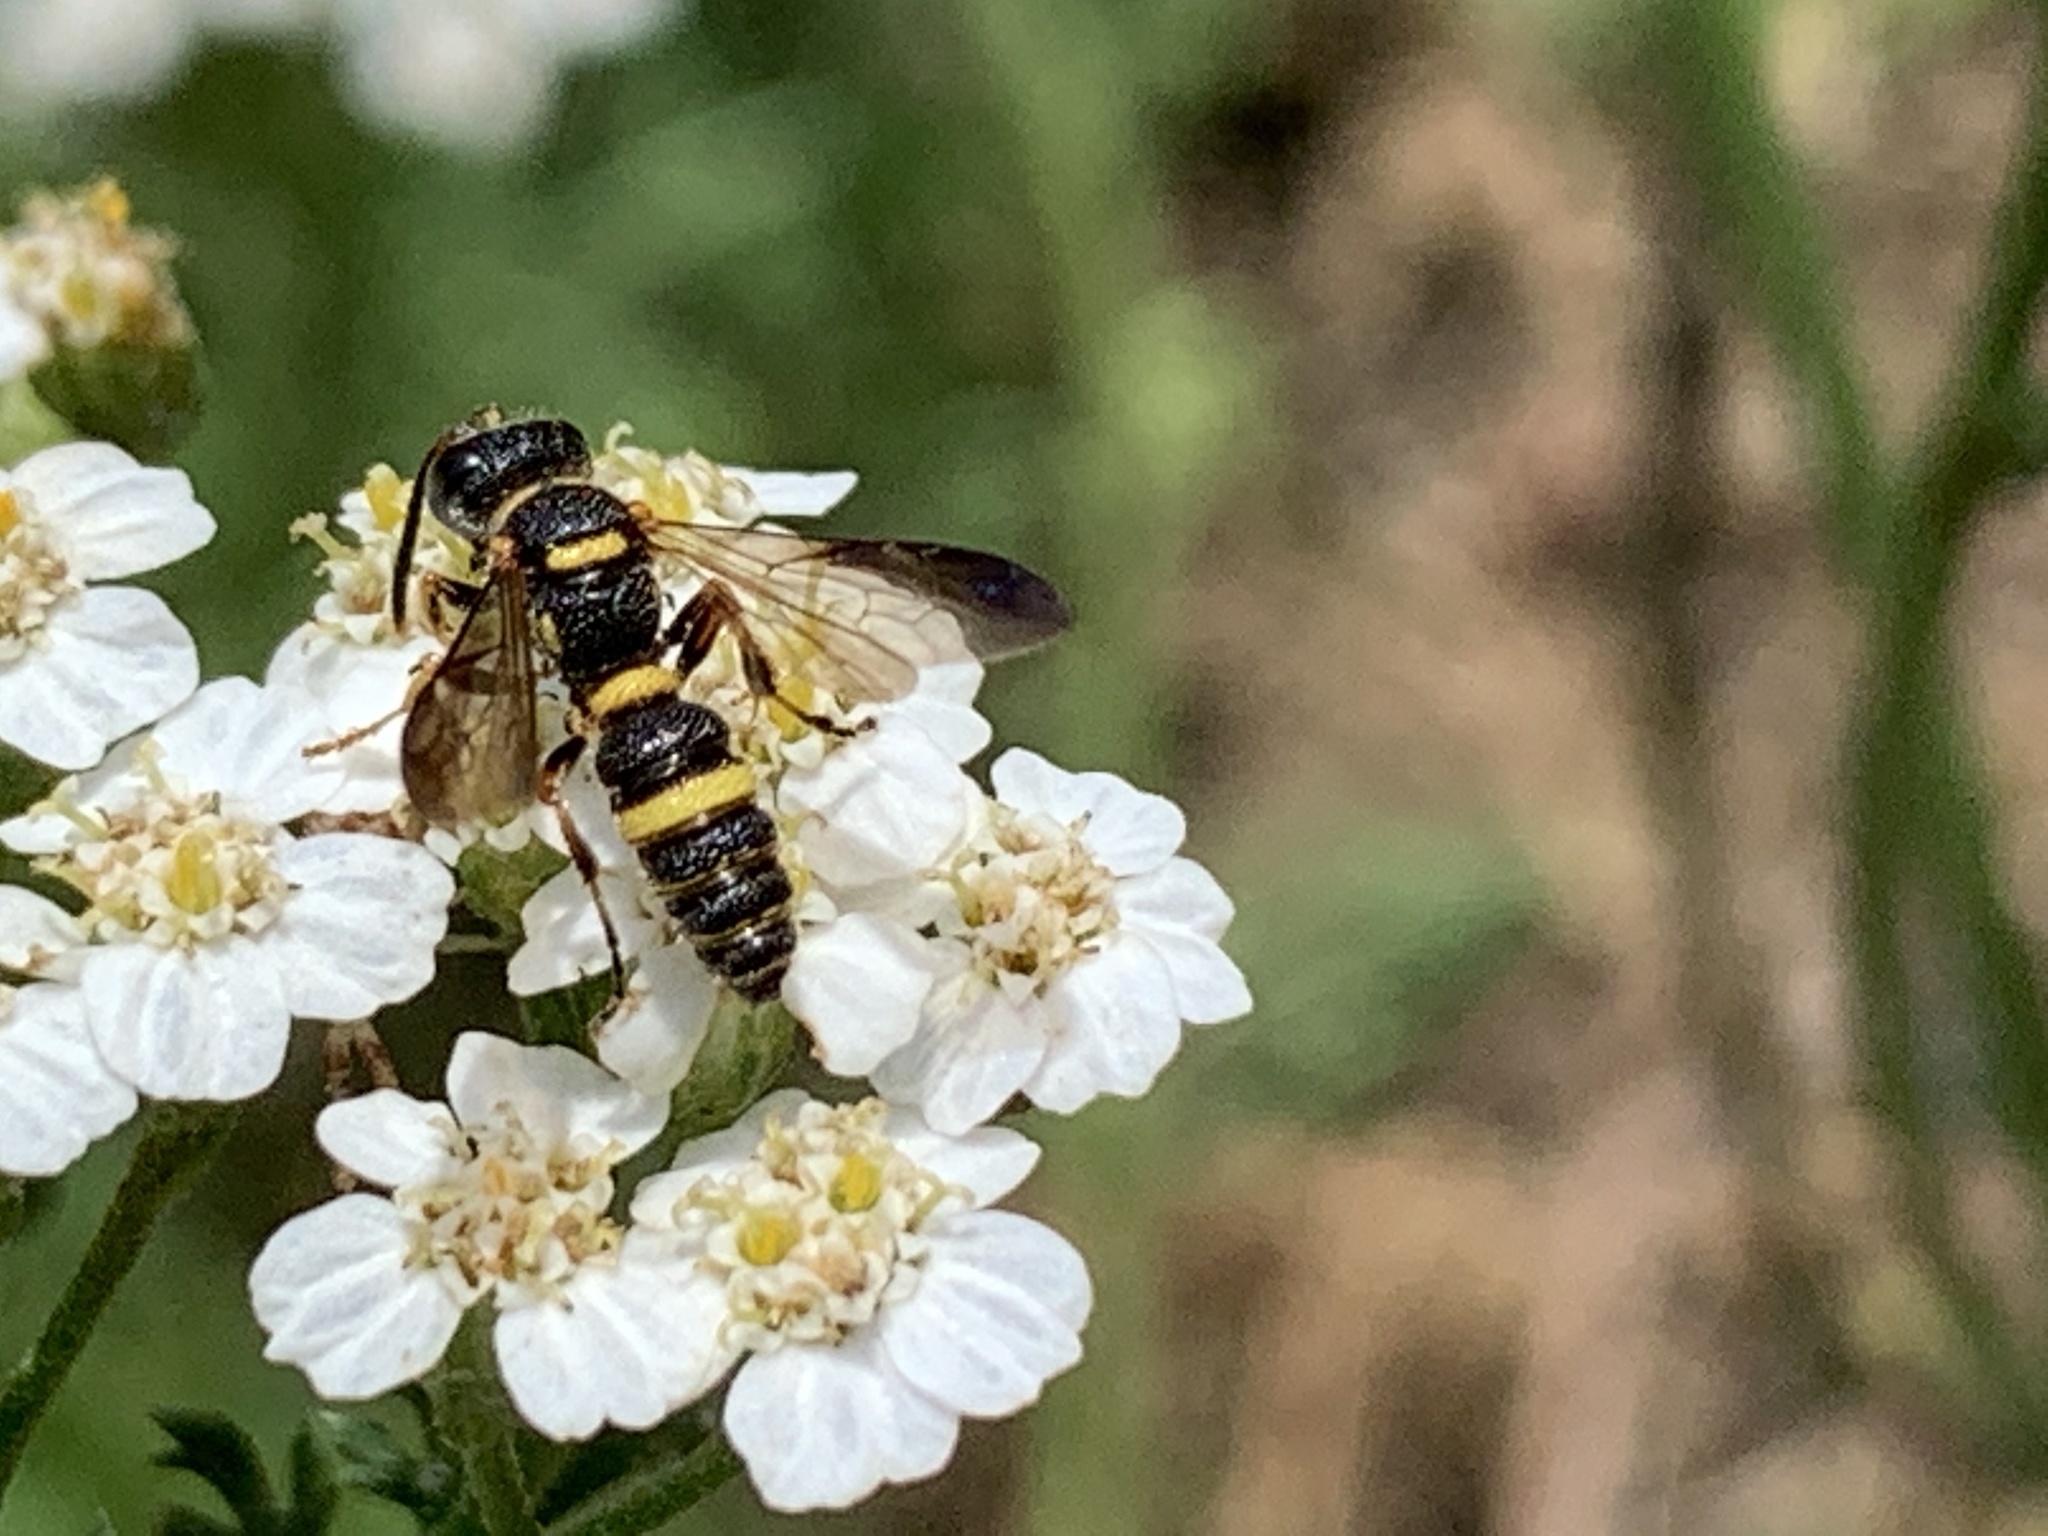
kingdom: Animalia
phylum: Arthropoda
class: Insecta
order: Hymenoptera
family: Crabronidae
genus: Cerceris
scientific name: Cerceris insolita
